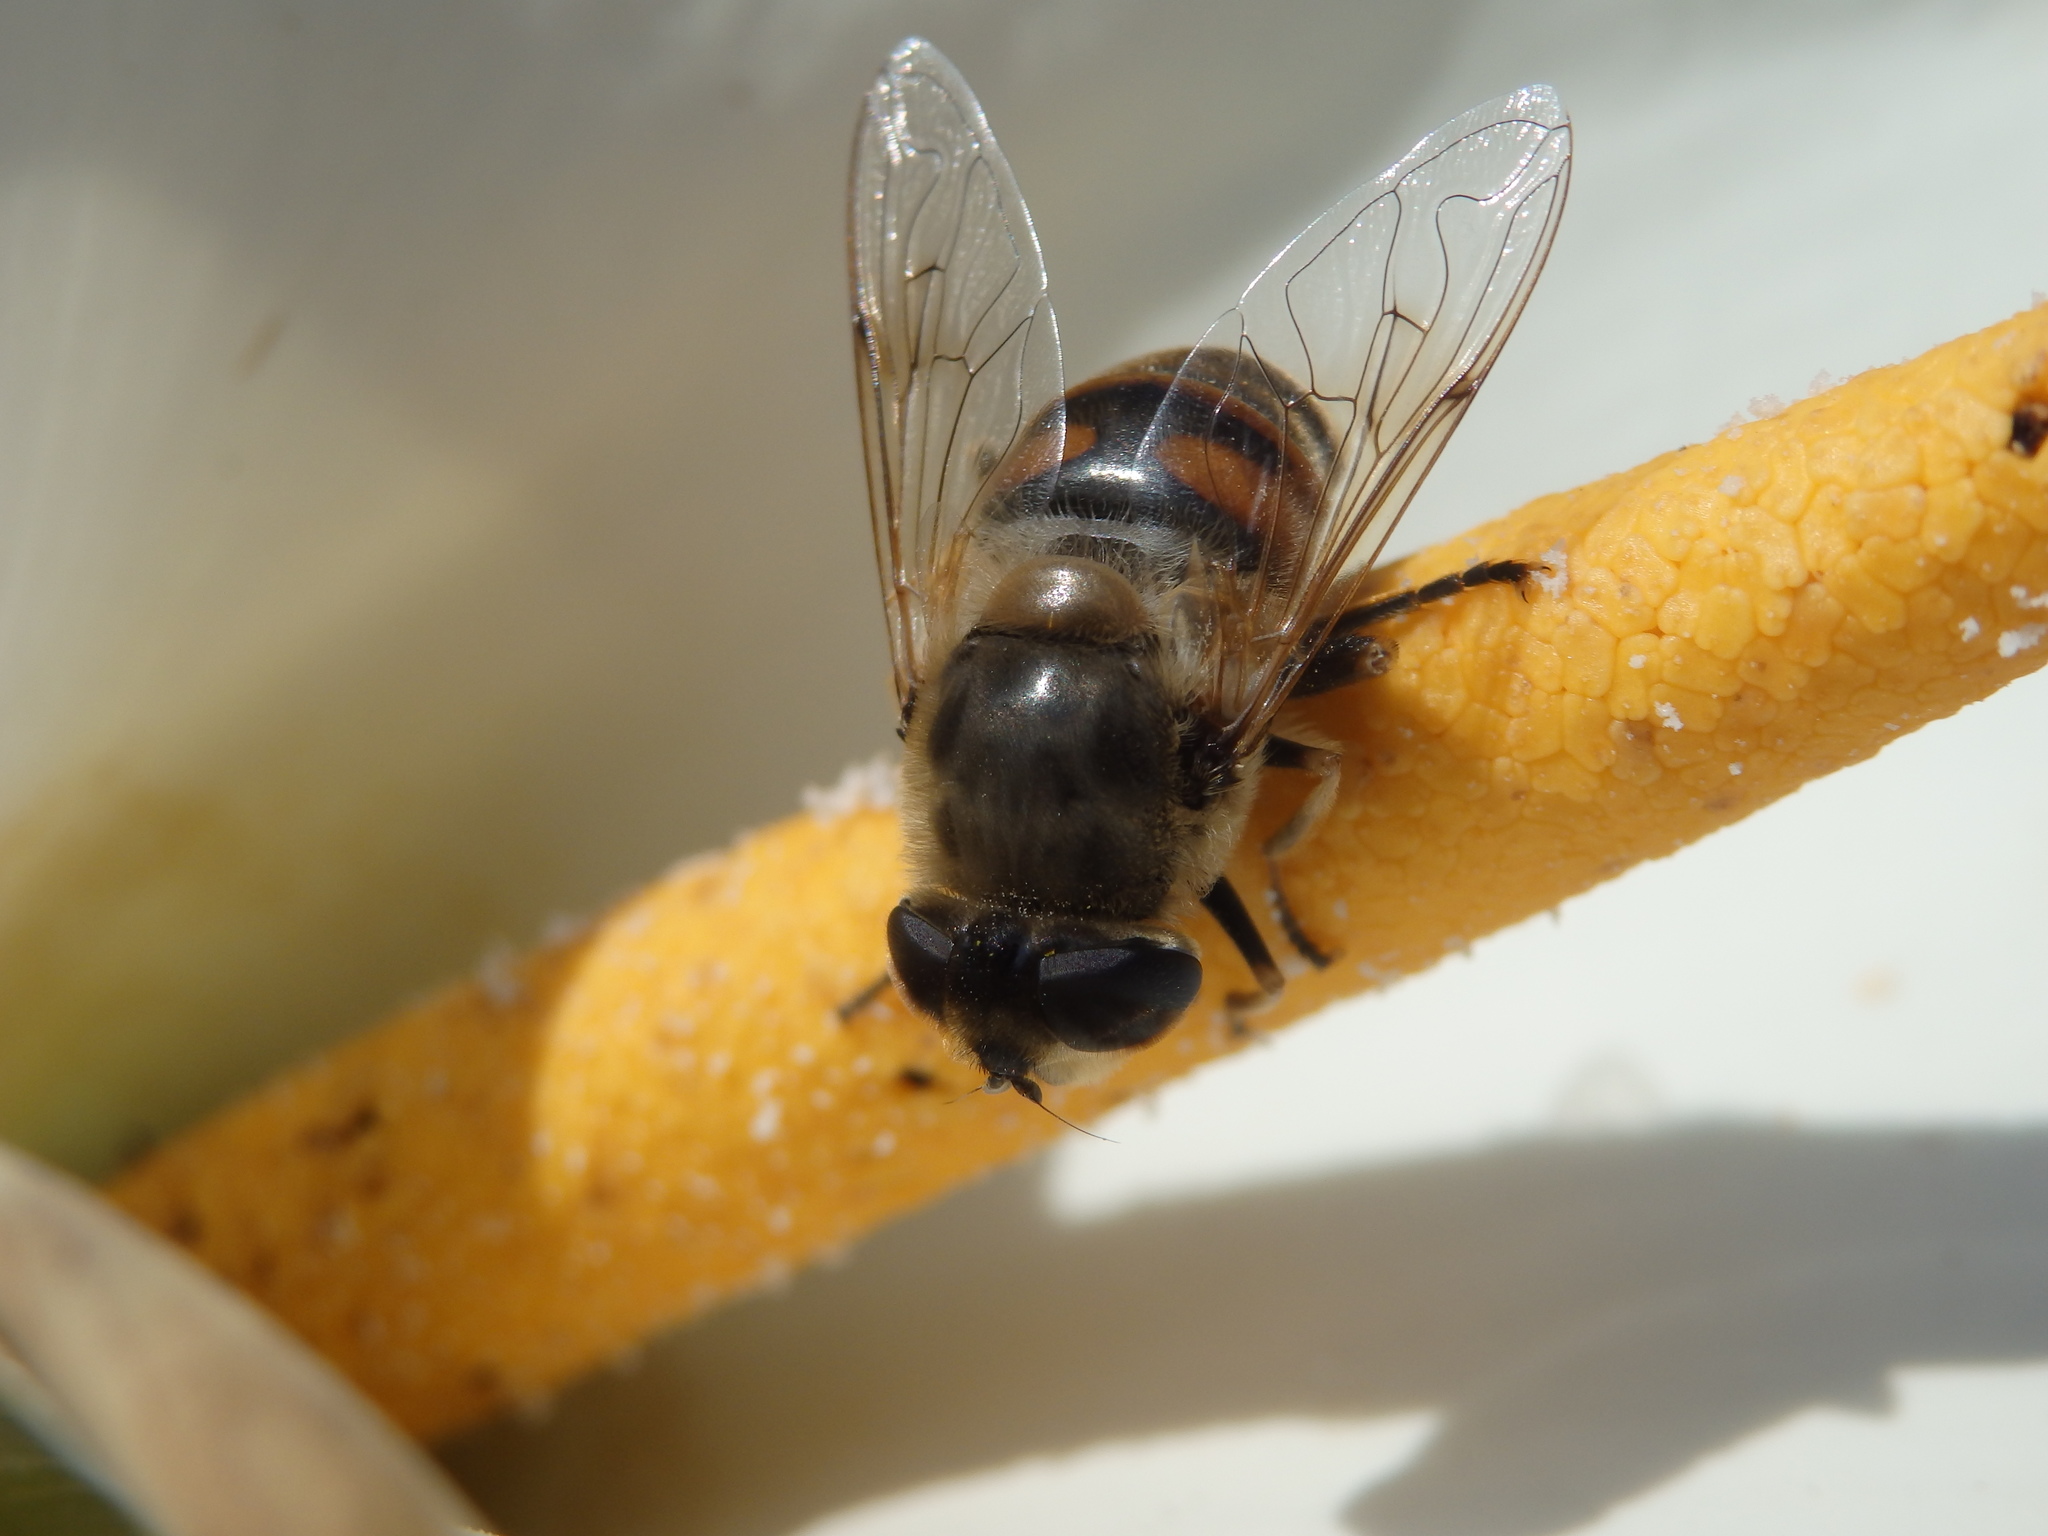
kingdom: Animalia
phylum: Arthropoda
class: Insecta
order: Diptera
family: Syrphidae
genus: Eristalis
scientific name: Eristalis tenax
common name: Drone fly
